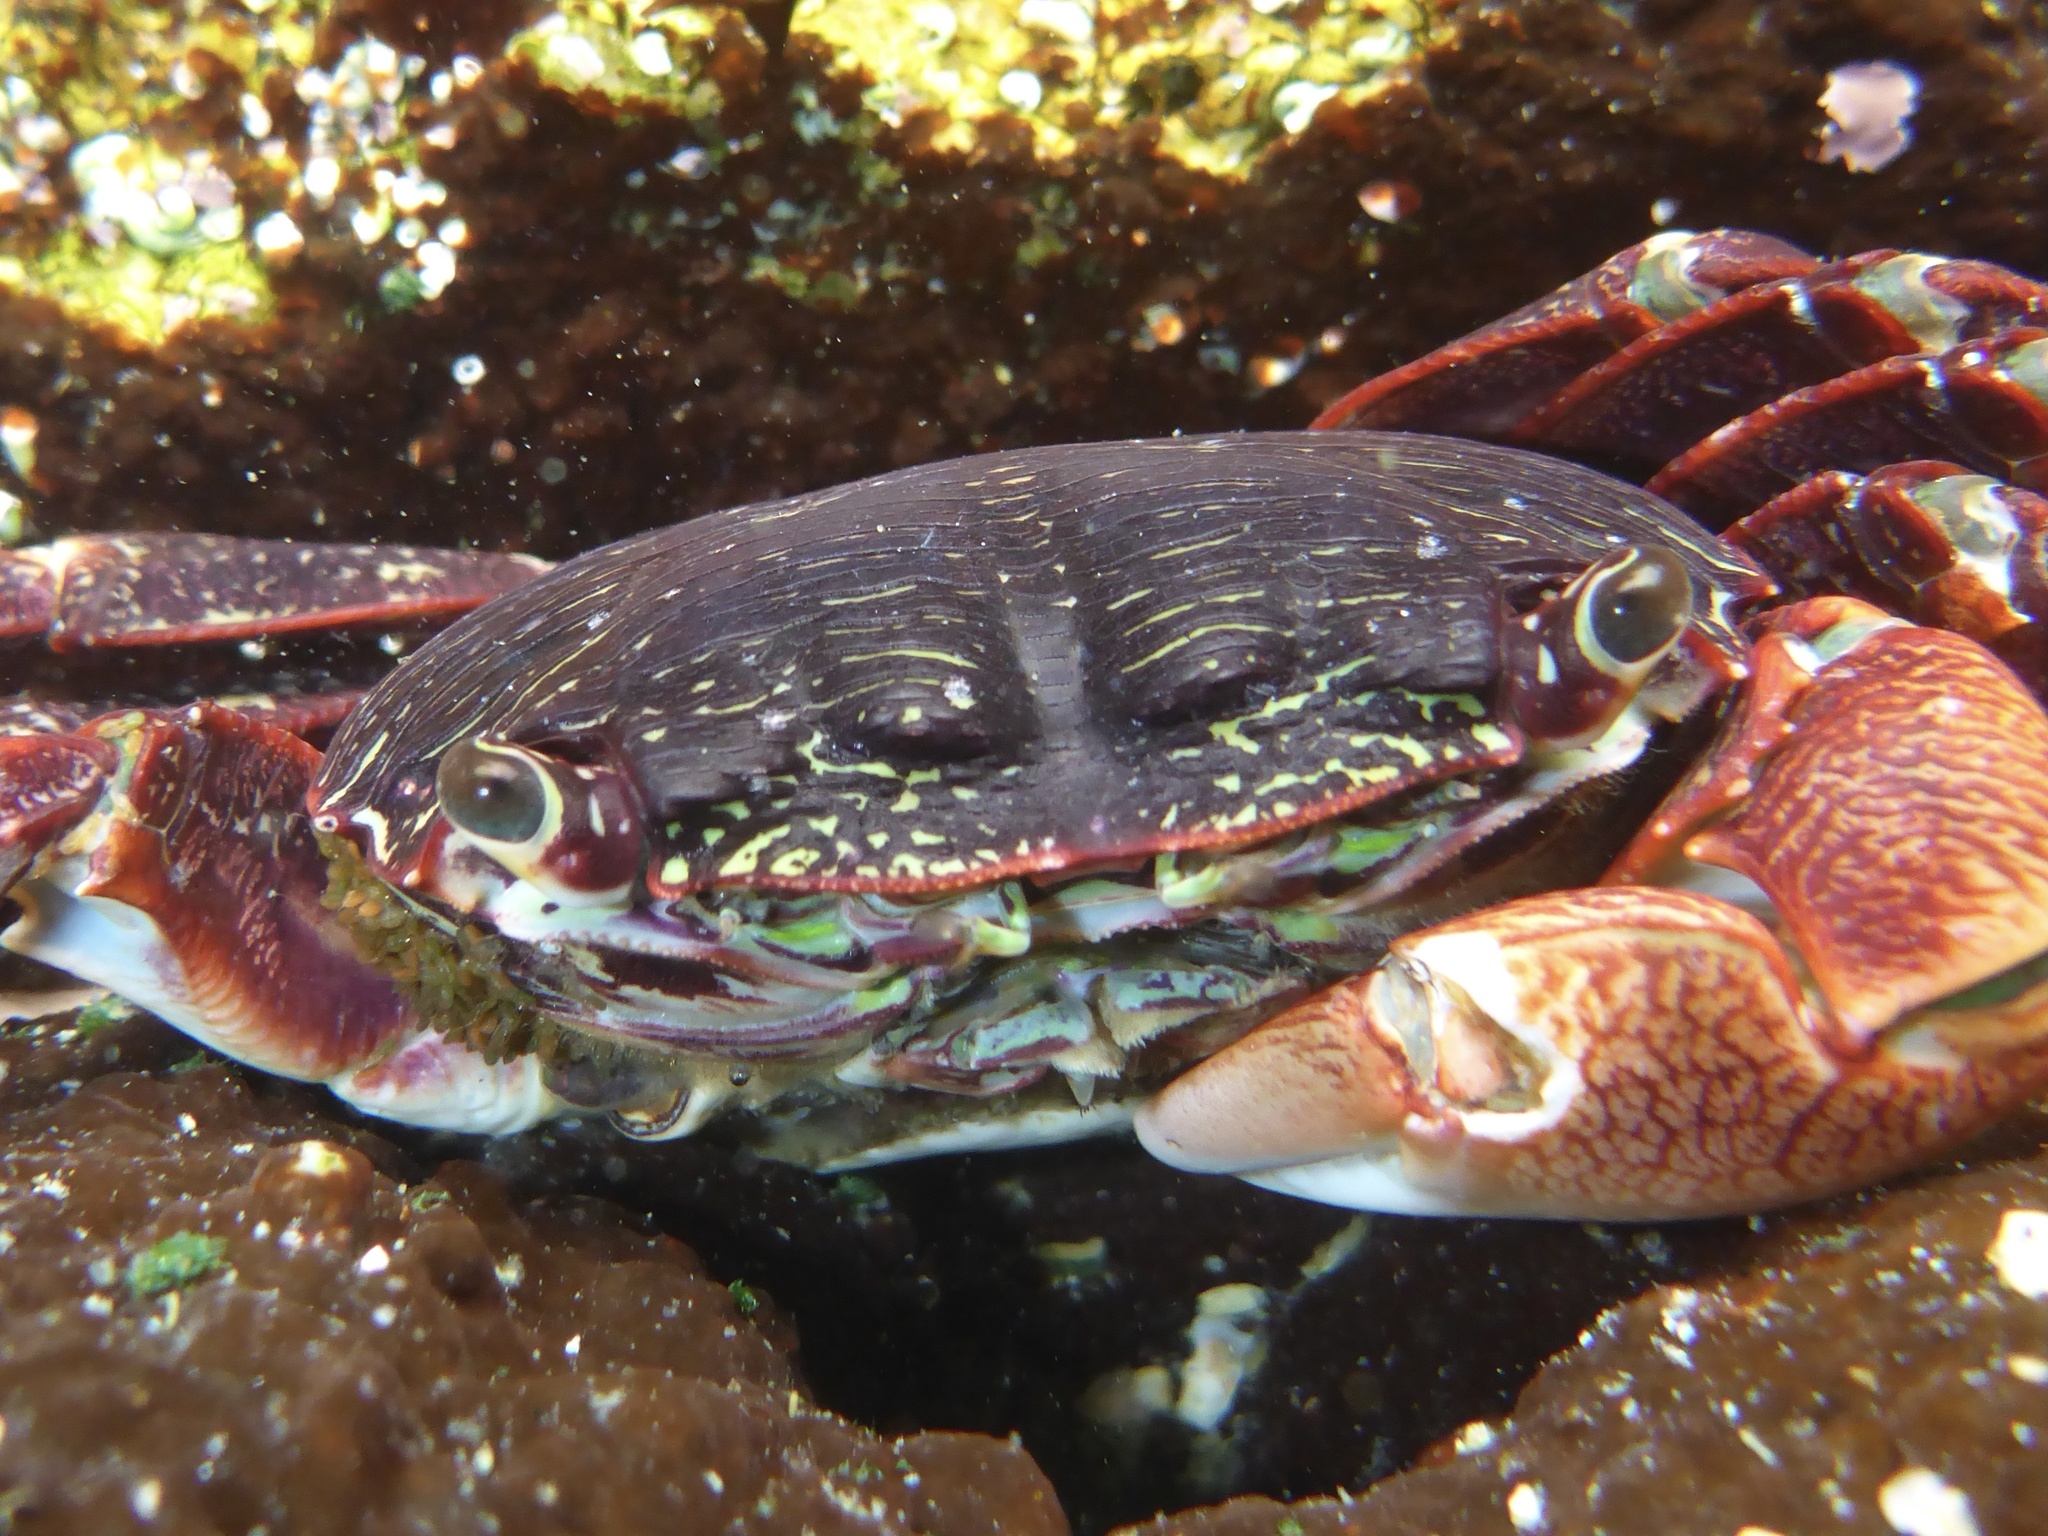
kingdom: Animalia
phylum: Arthropoda
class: Malacostraca
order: Decapoda
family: Grapsidae
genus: Pachygrapsus
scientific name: Pachygrapsus crassipes
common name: Striped shore crab
